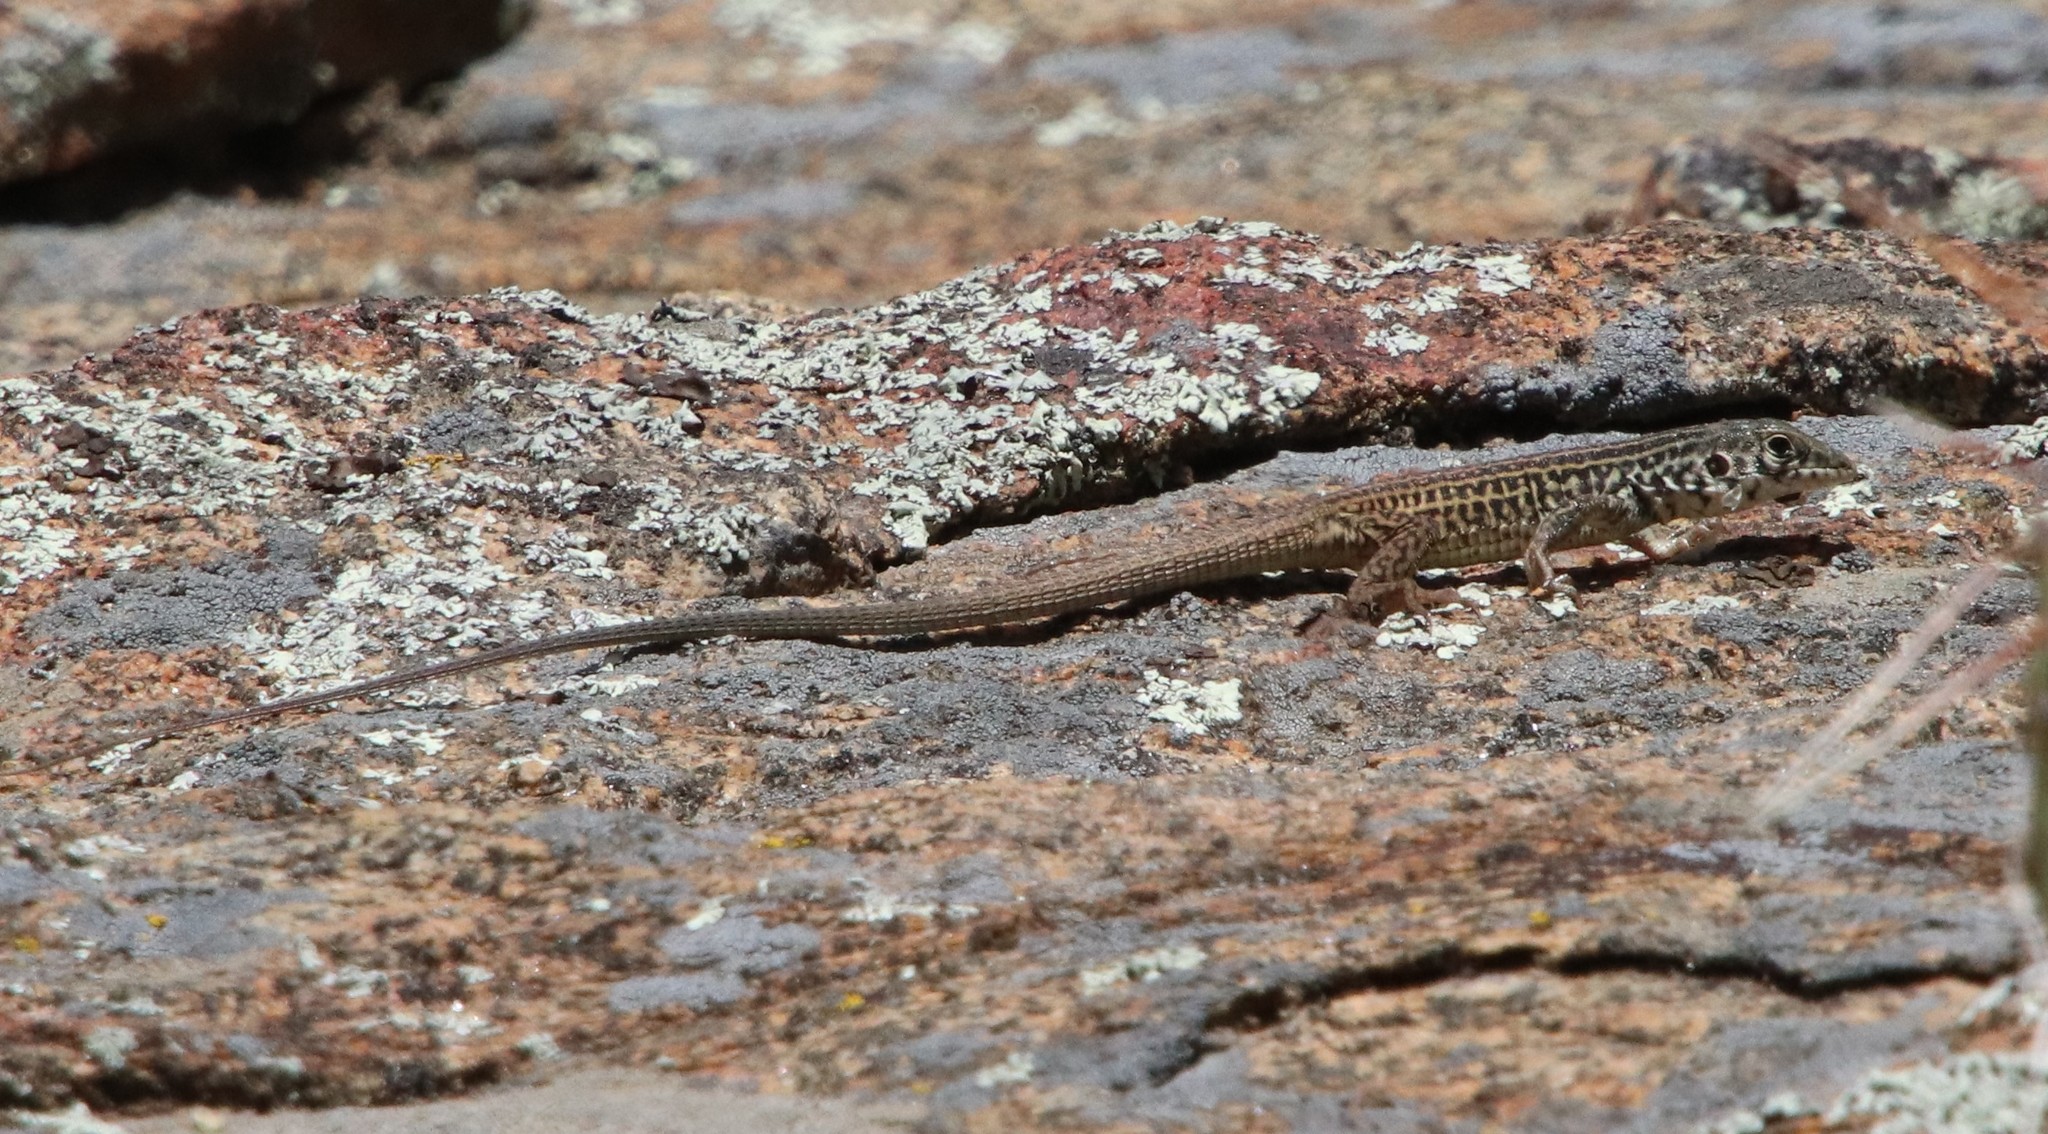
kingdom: Animalia
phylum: Chordata
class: Squamata
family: Teiidae
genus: Aspidoscelis
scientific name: Aspidoscelis tigris
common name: Tiger whiptail
